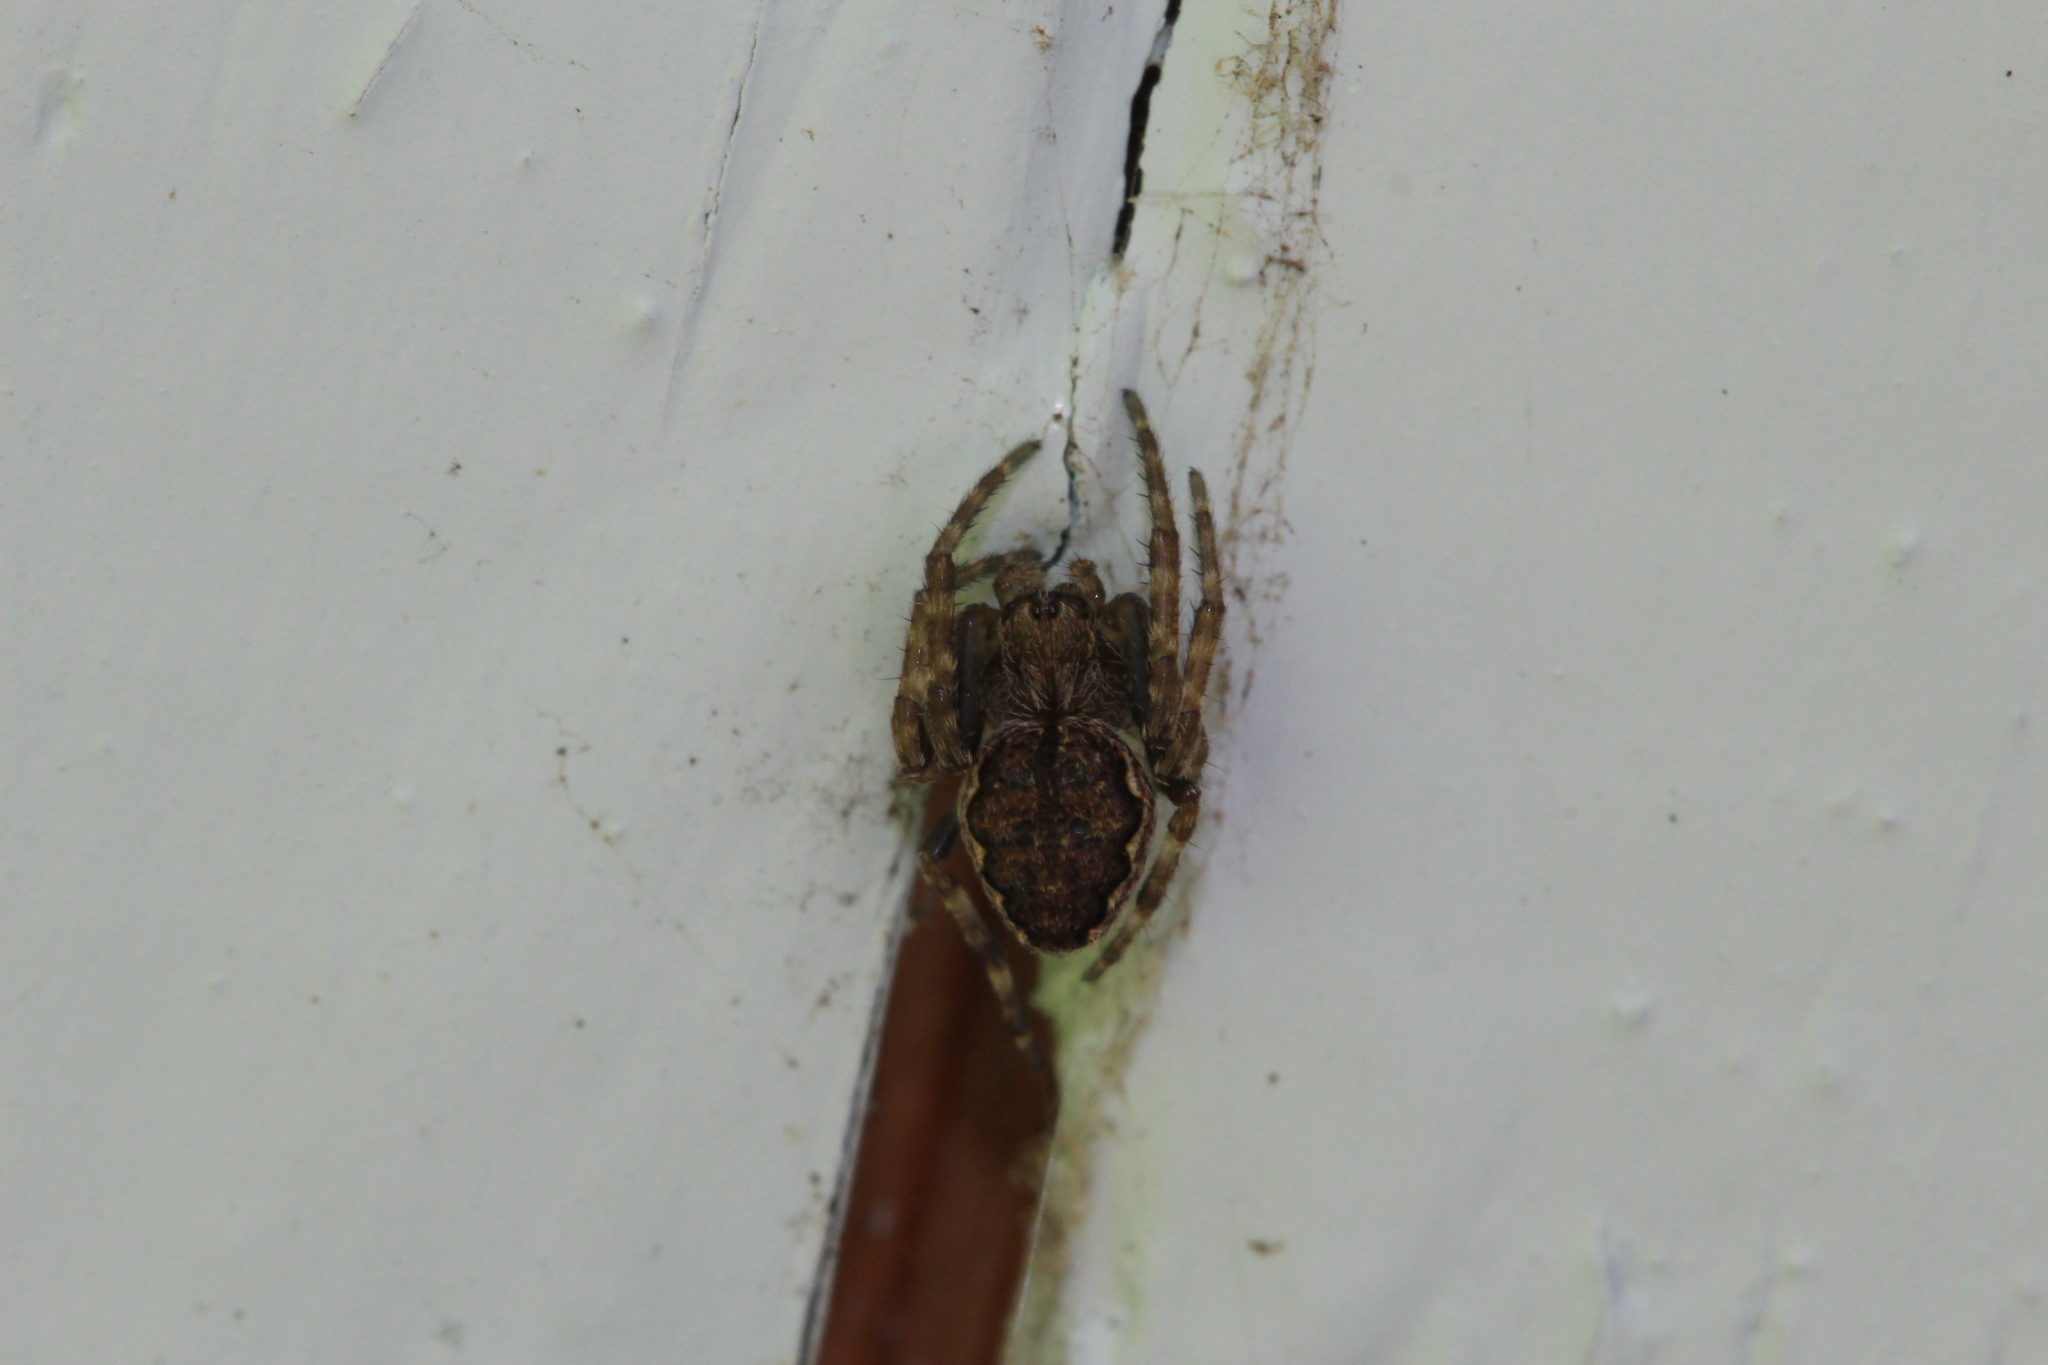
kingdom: Animalia
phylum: Arthropoda
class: Arachnida
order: Araneae
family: Araneidae
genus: Nuctenea
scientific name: Nuctenea umbratica
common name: Toad spider
